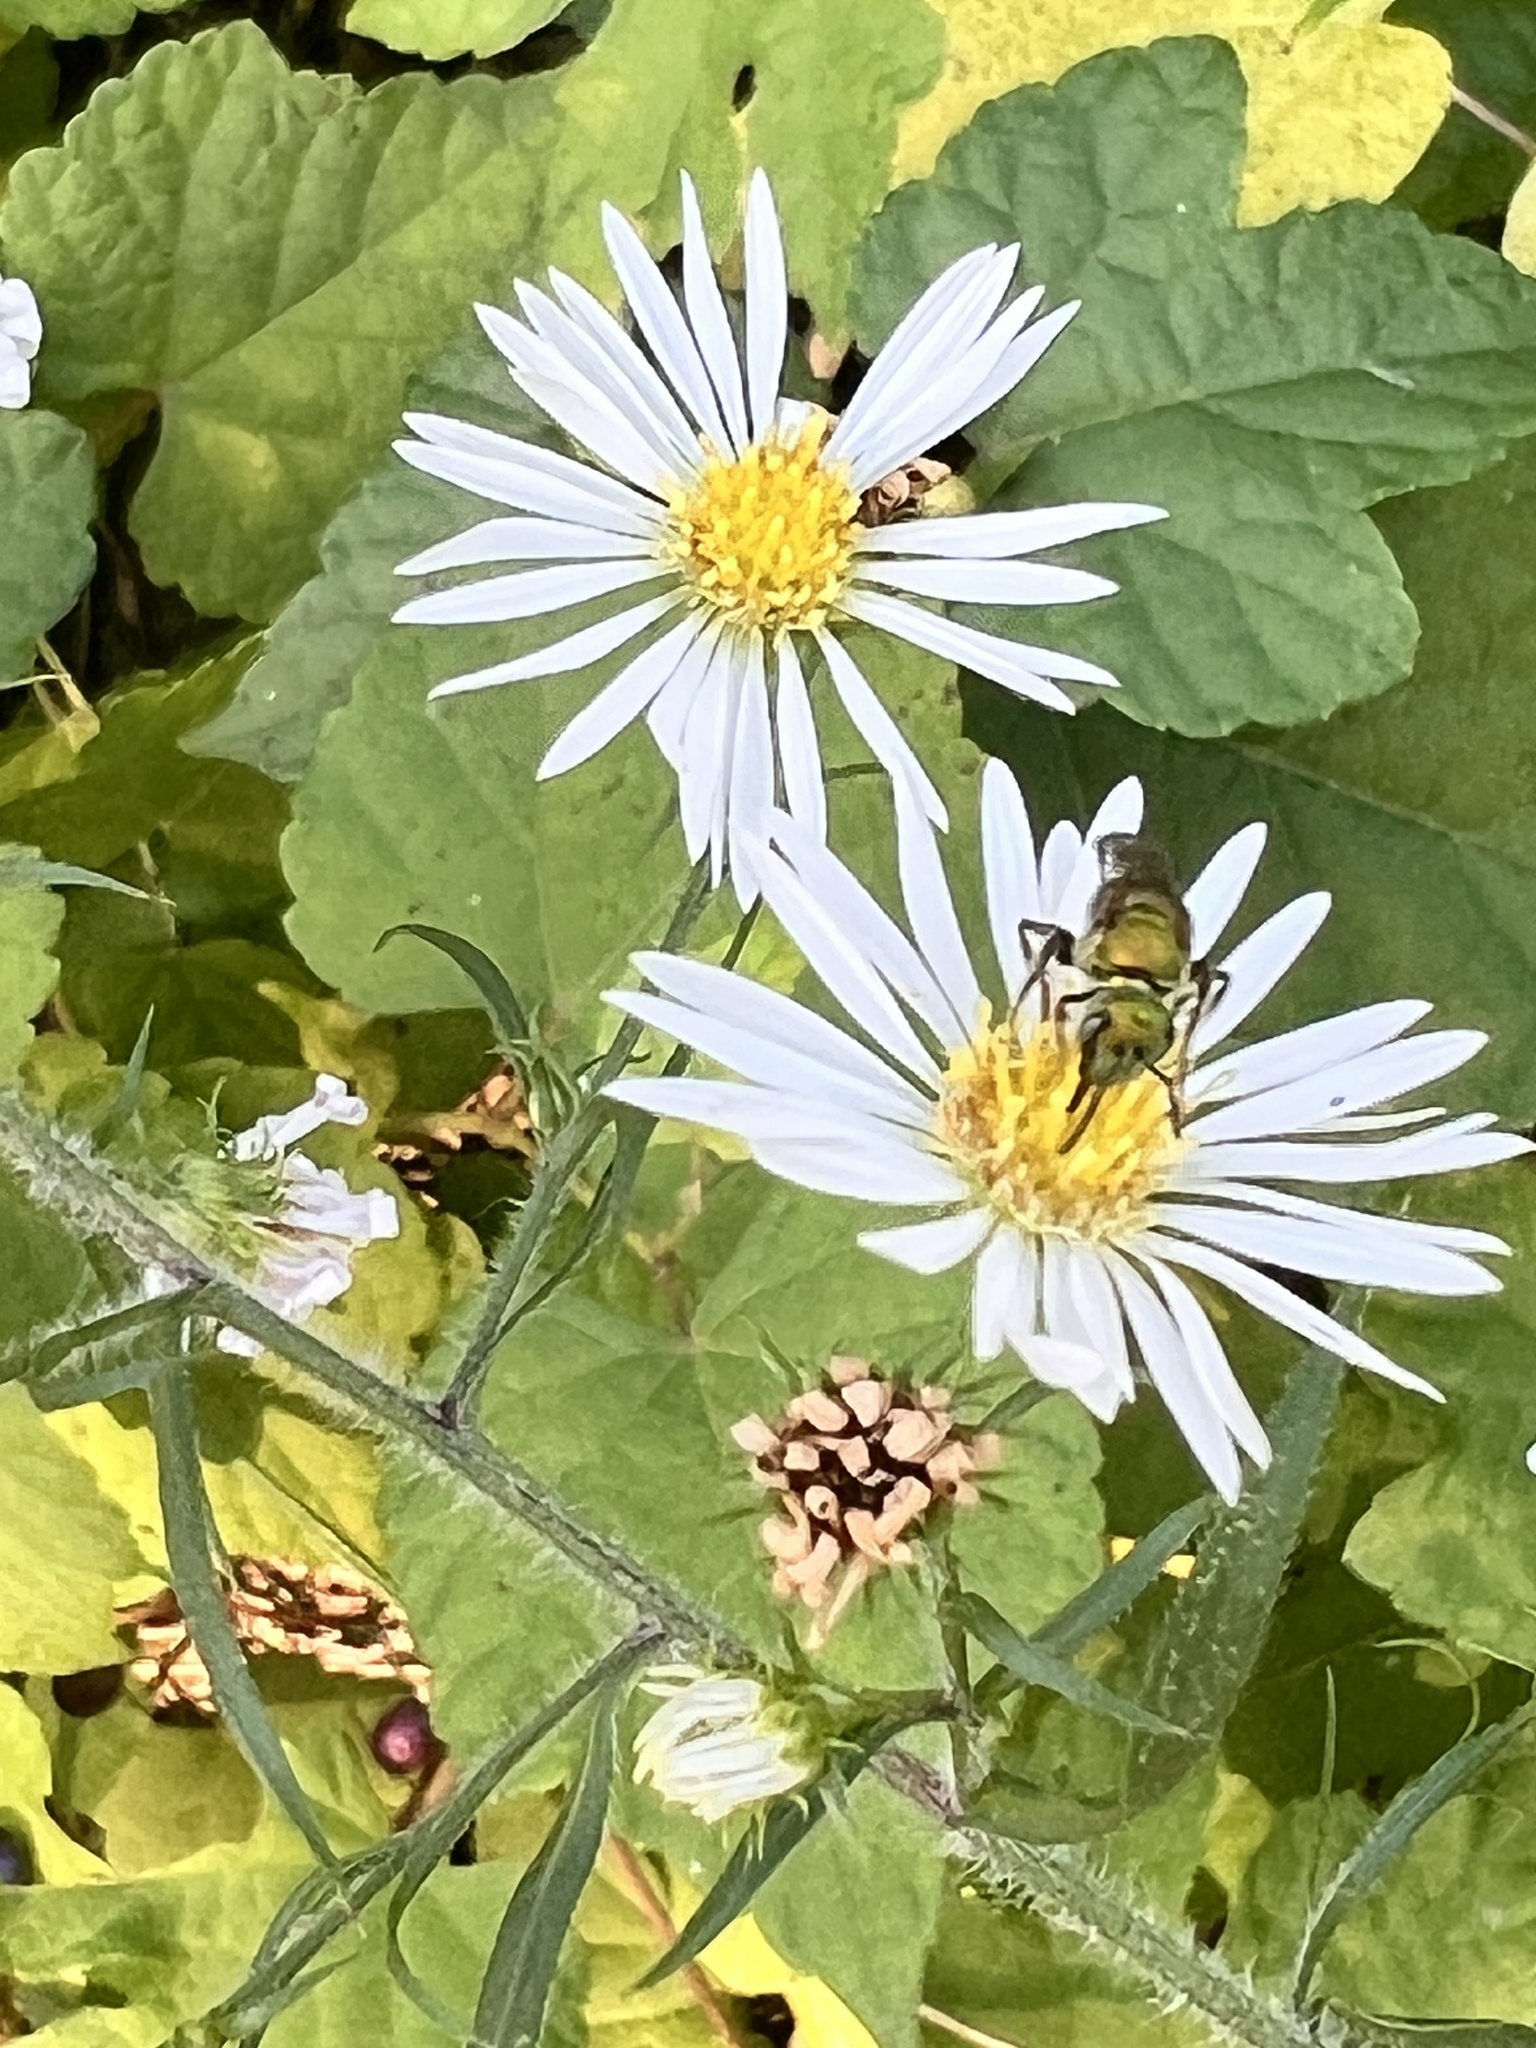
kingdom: Animalia
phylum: Arthropoda
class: Insecta
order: Hymenoptera
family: Halictidae
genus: Augochlora
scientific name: Augochlora pura
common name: Pure green sweat bee
